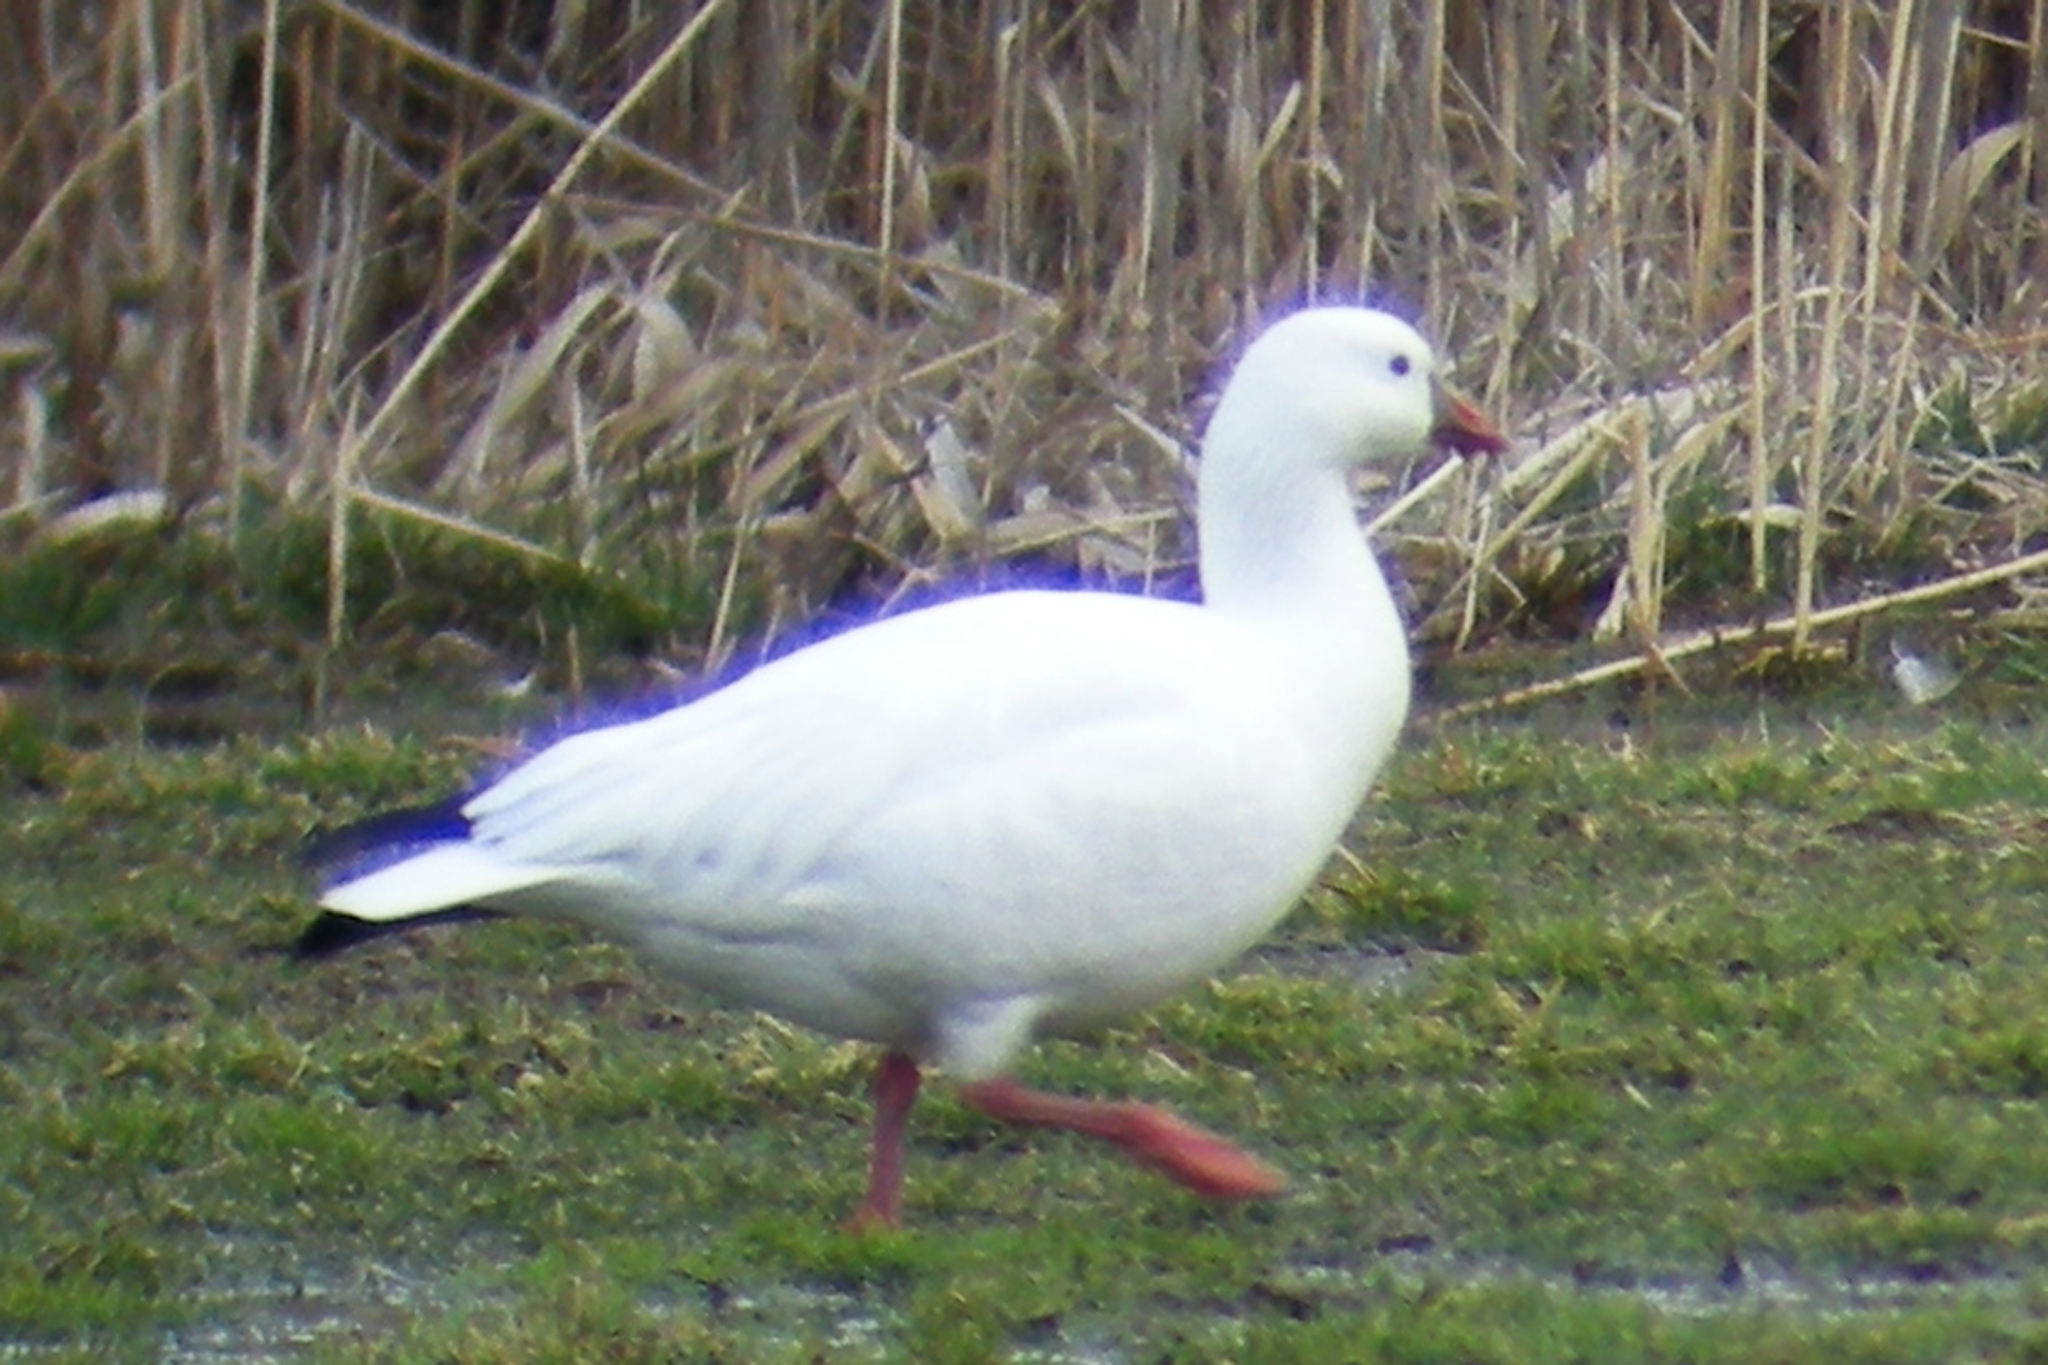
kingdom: Animalia
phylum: Chordata
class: Aves
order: Anseriformes
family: Anatidae
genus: Anser
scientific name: Anser rossii
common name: Ross's goose
